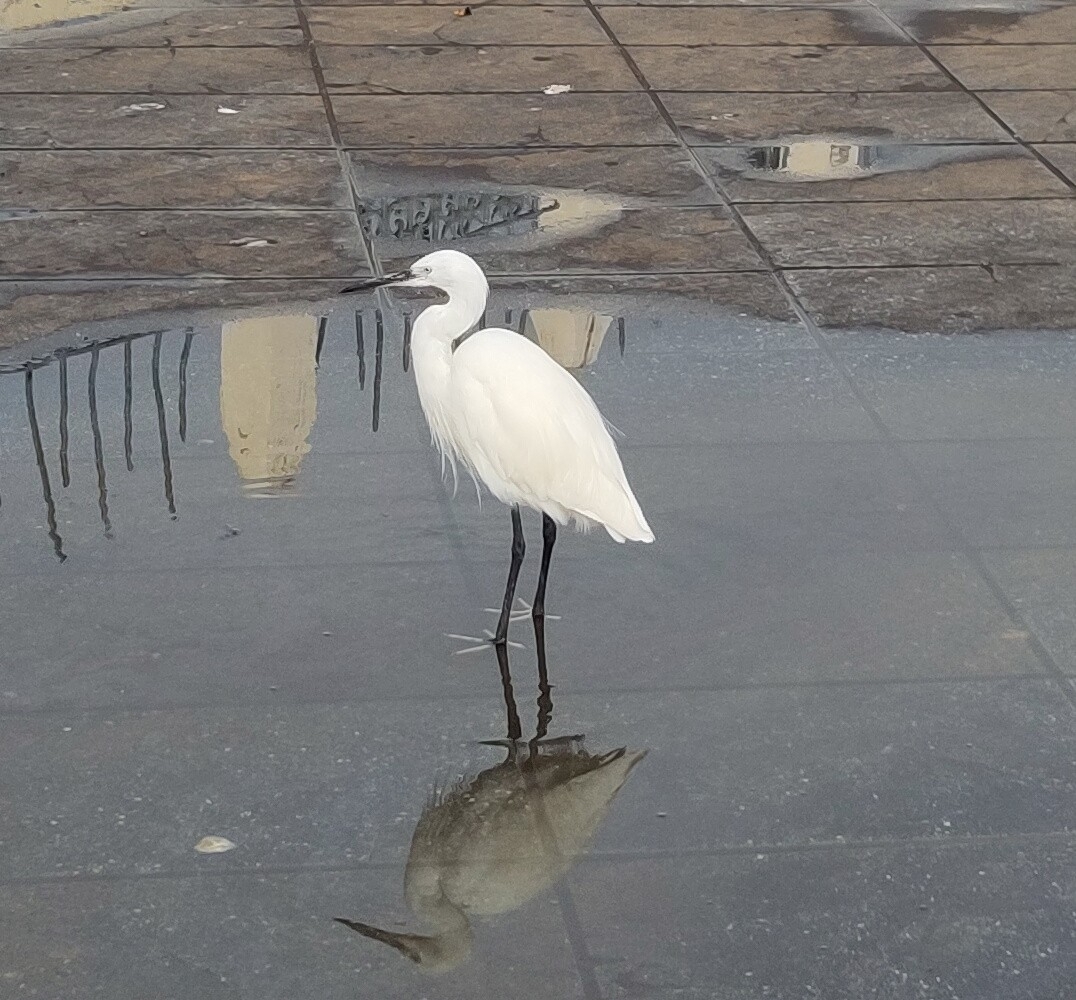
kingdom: Animalia
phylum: Chordata
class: Aves
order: Pelecaniformes
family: Ardeidae
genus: Egretta
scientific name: Egretta garzetta
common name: Little egret
